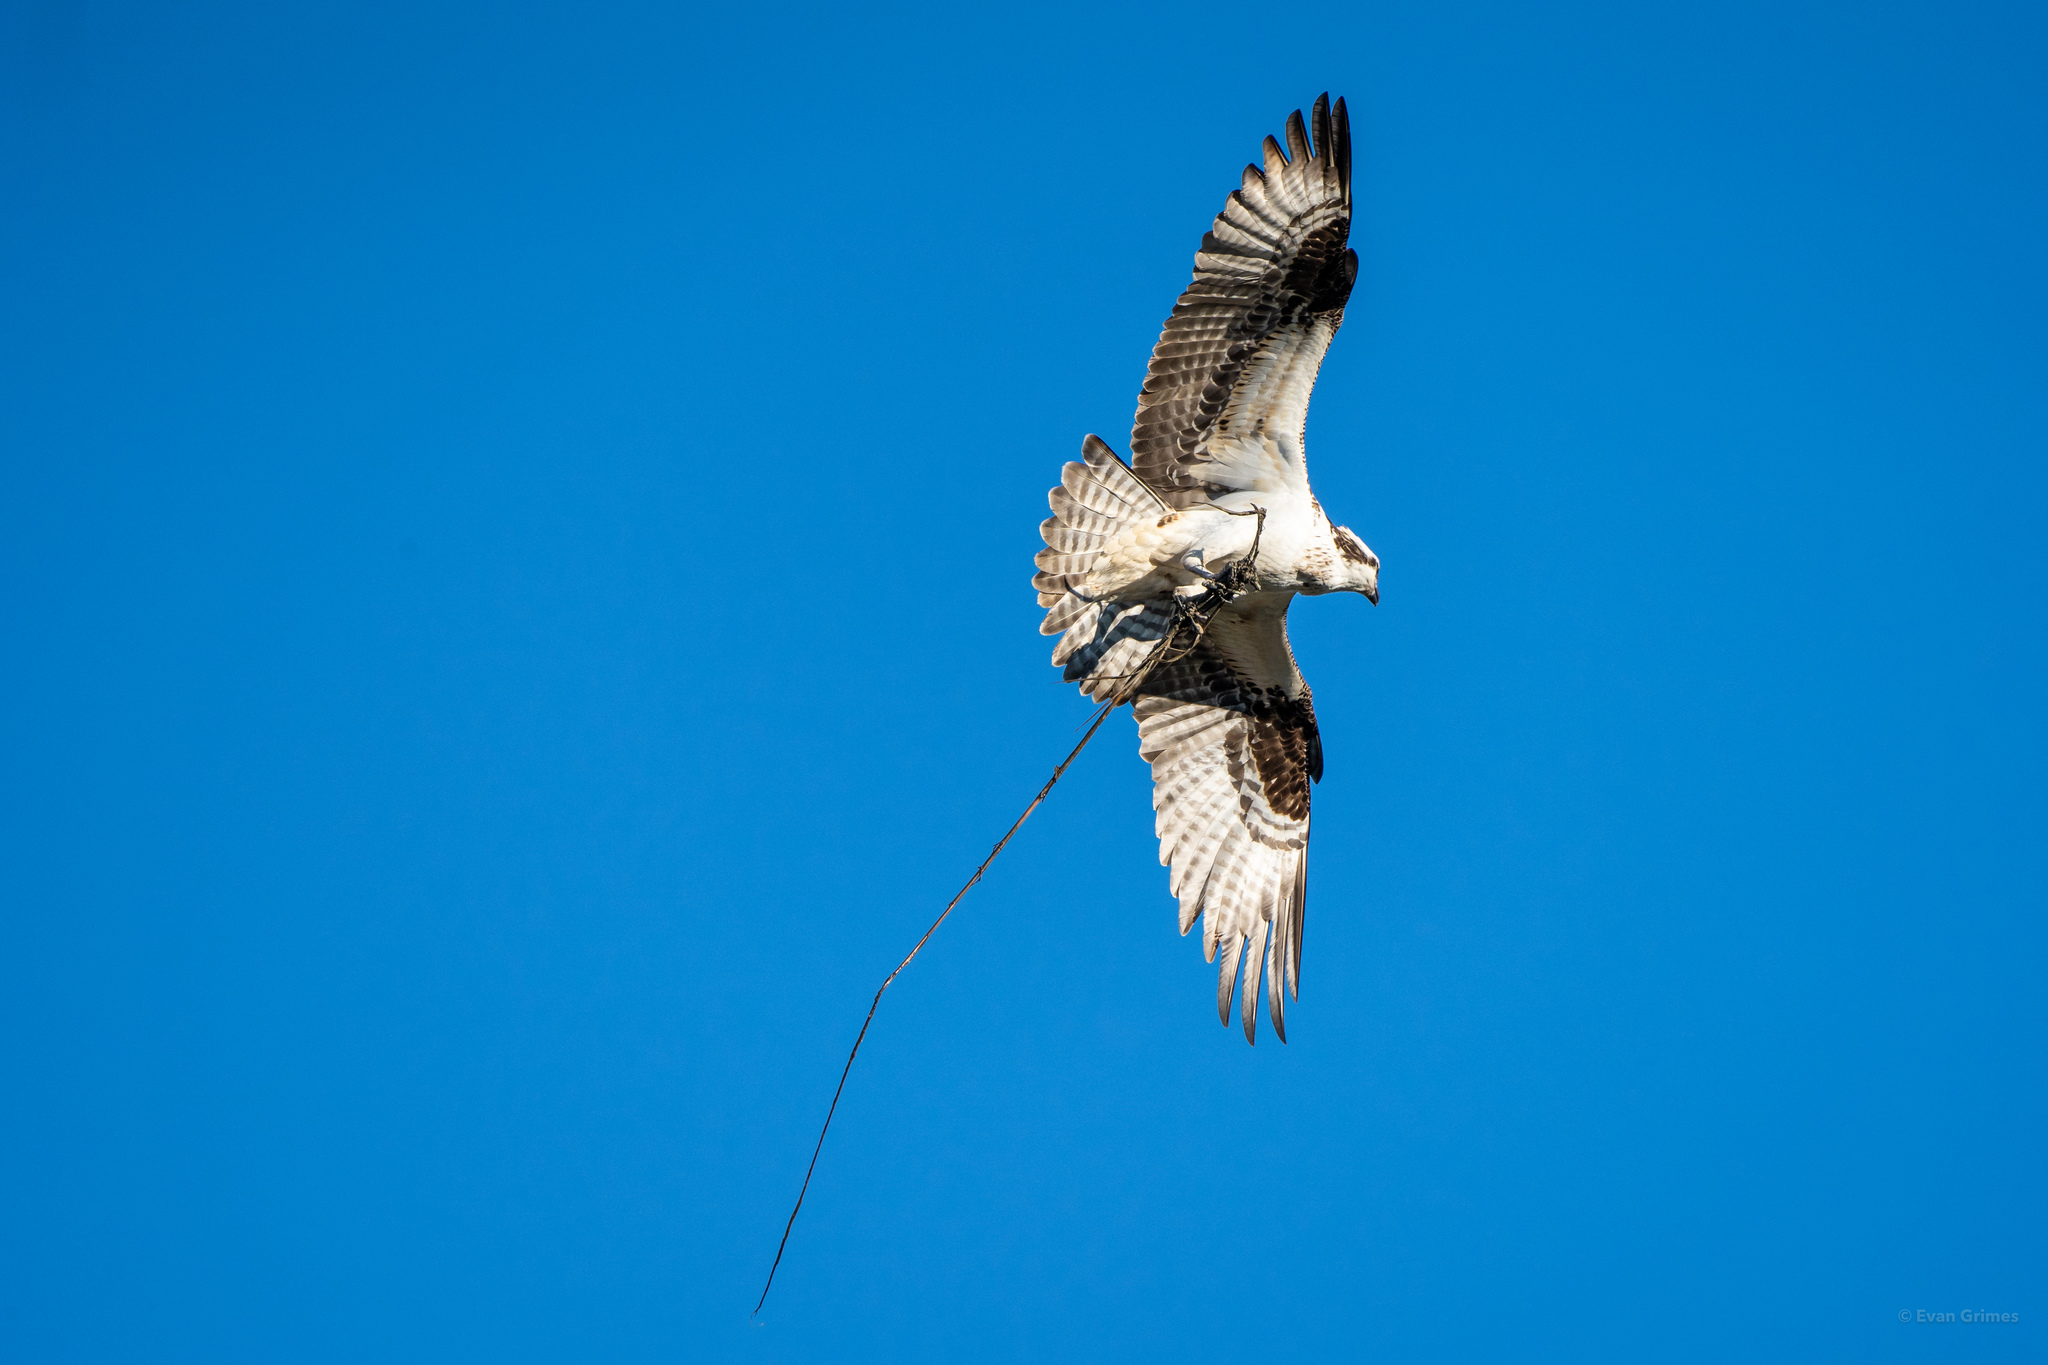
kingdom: Animalia
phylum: Chordata
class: Aves
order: Accipitriformes
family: Pandionidae
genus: Pandion
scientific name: Pandion haliaetus
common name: Osprey
